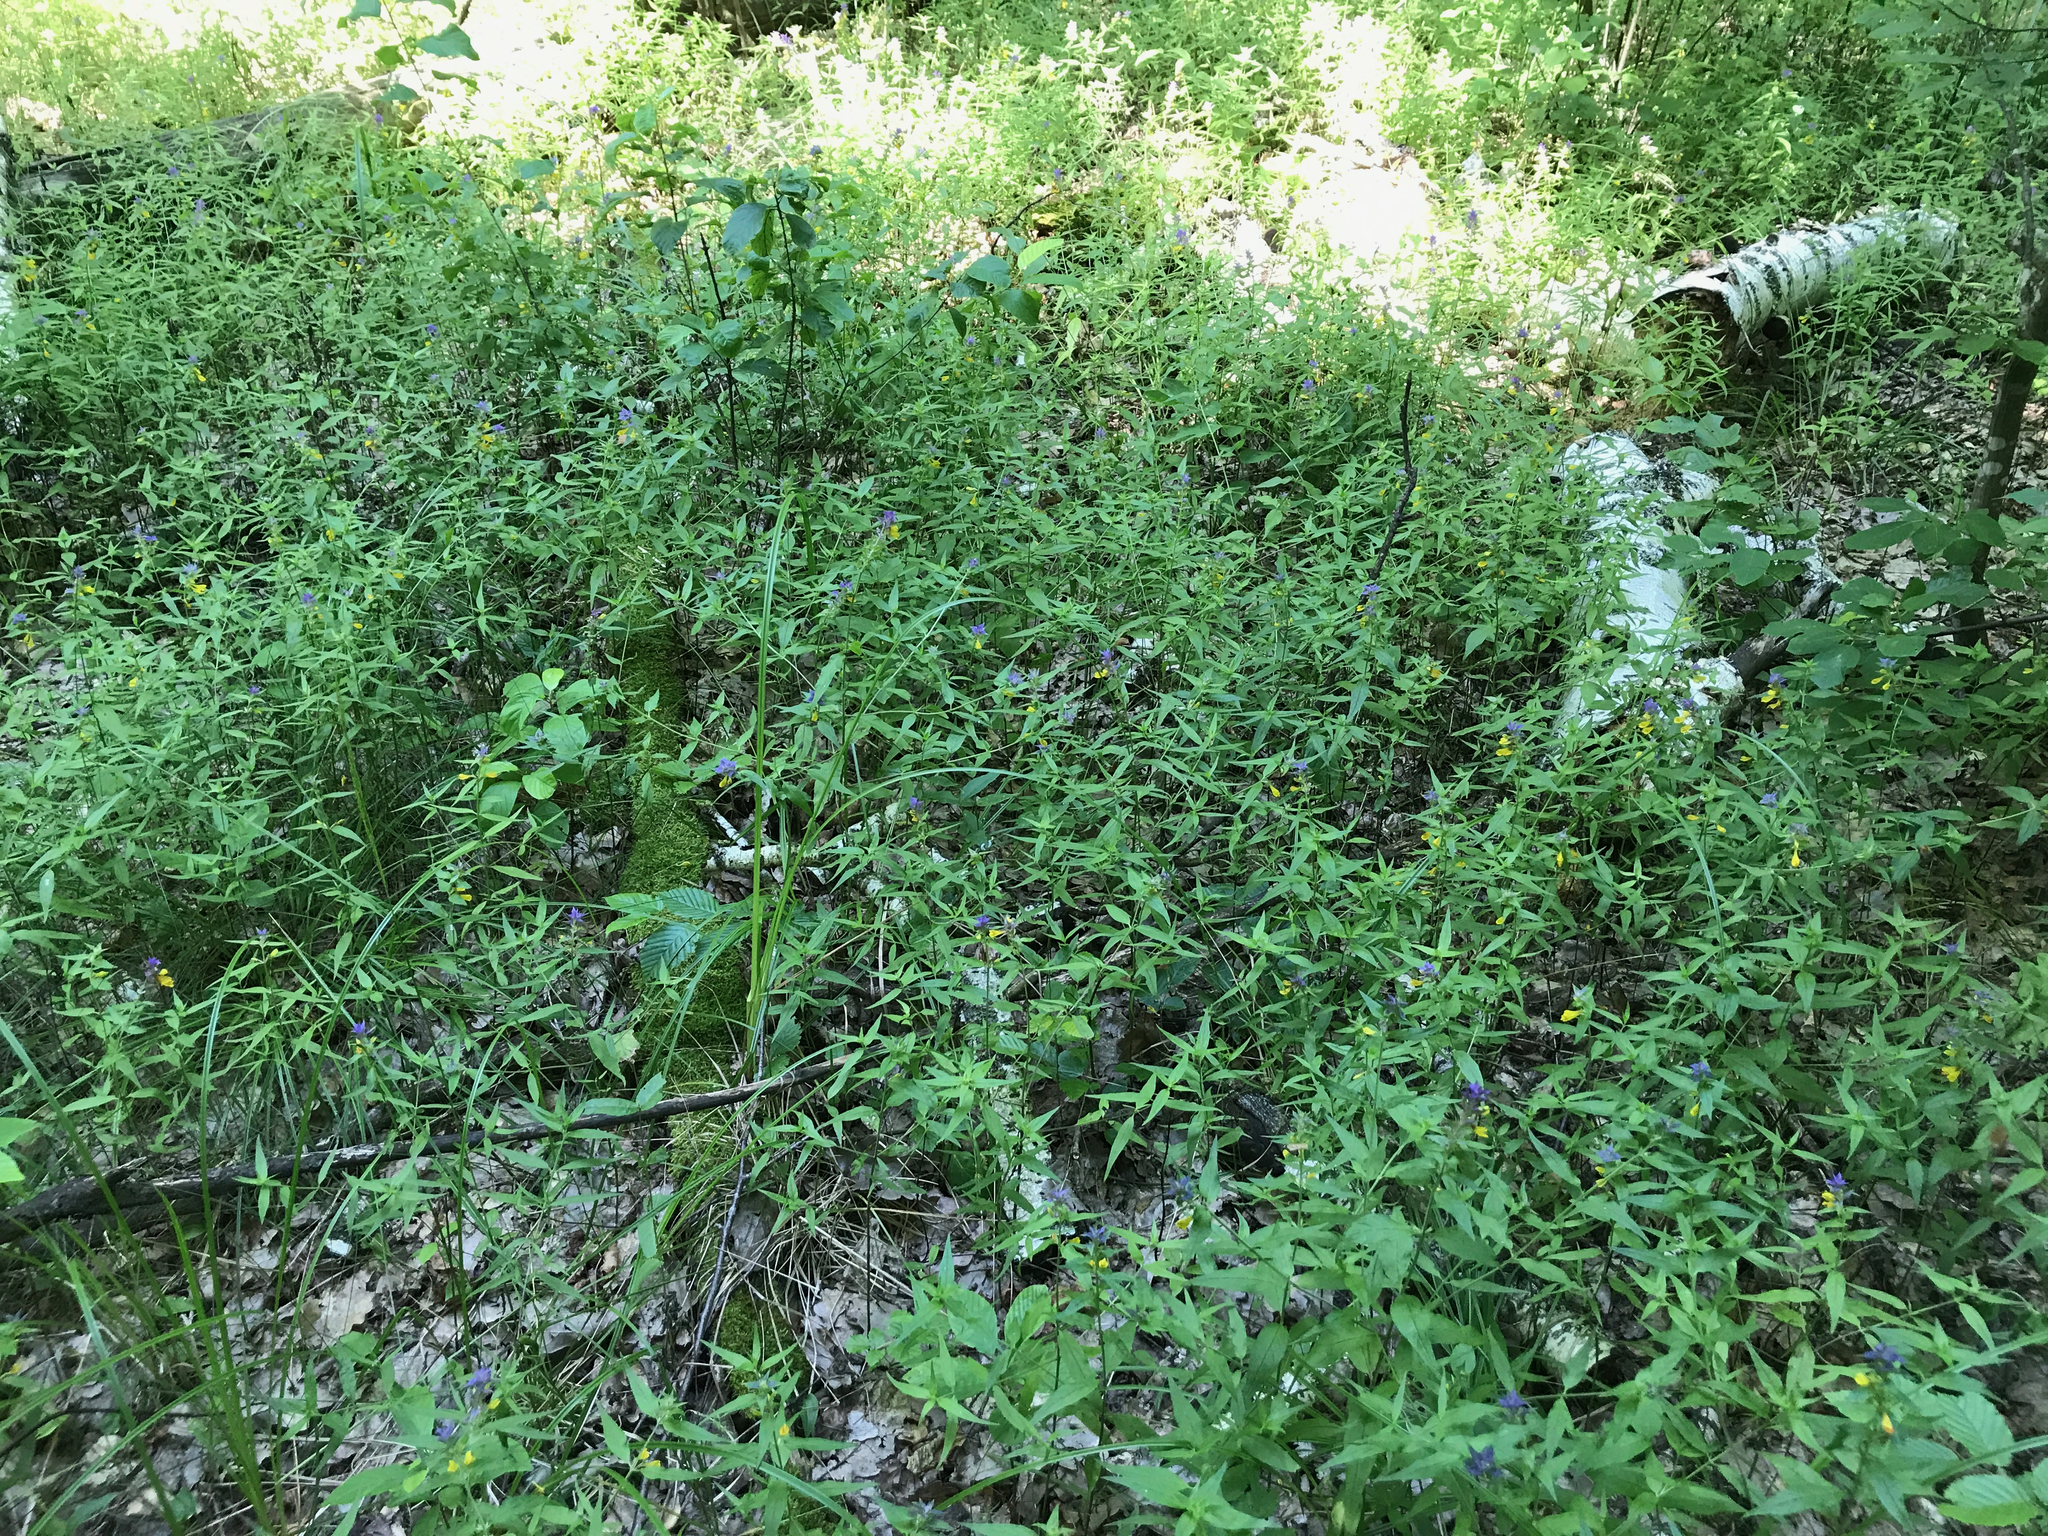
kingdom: Plantae
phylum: Tracheophyta
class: Magnoliopsida
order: Lamiales
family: Orobanchaceae
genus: Melampyrum
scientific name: Melampyrum nemorosum
